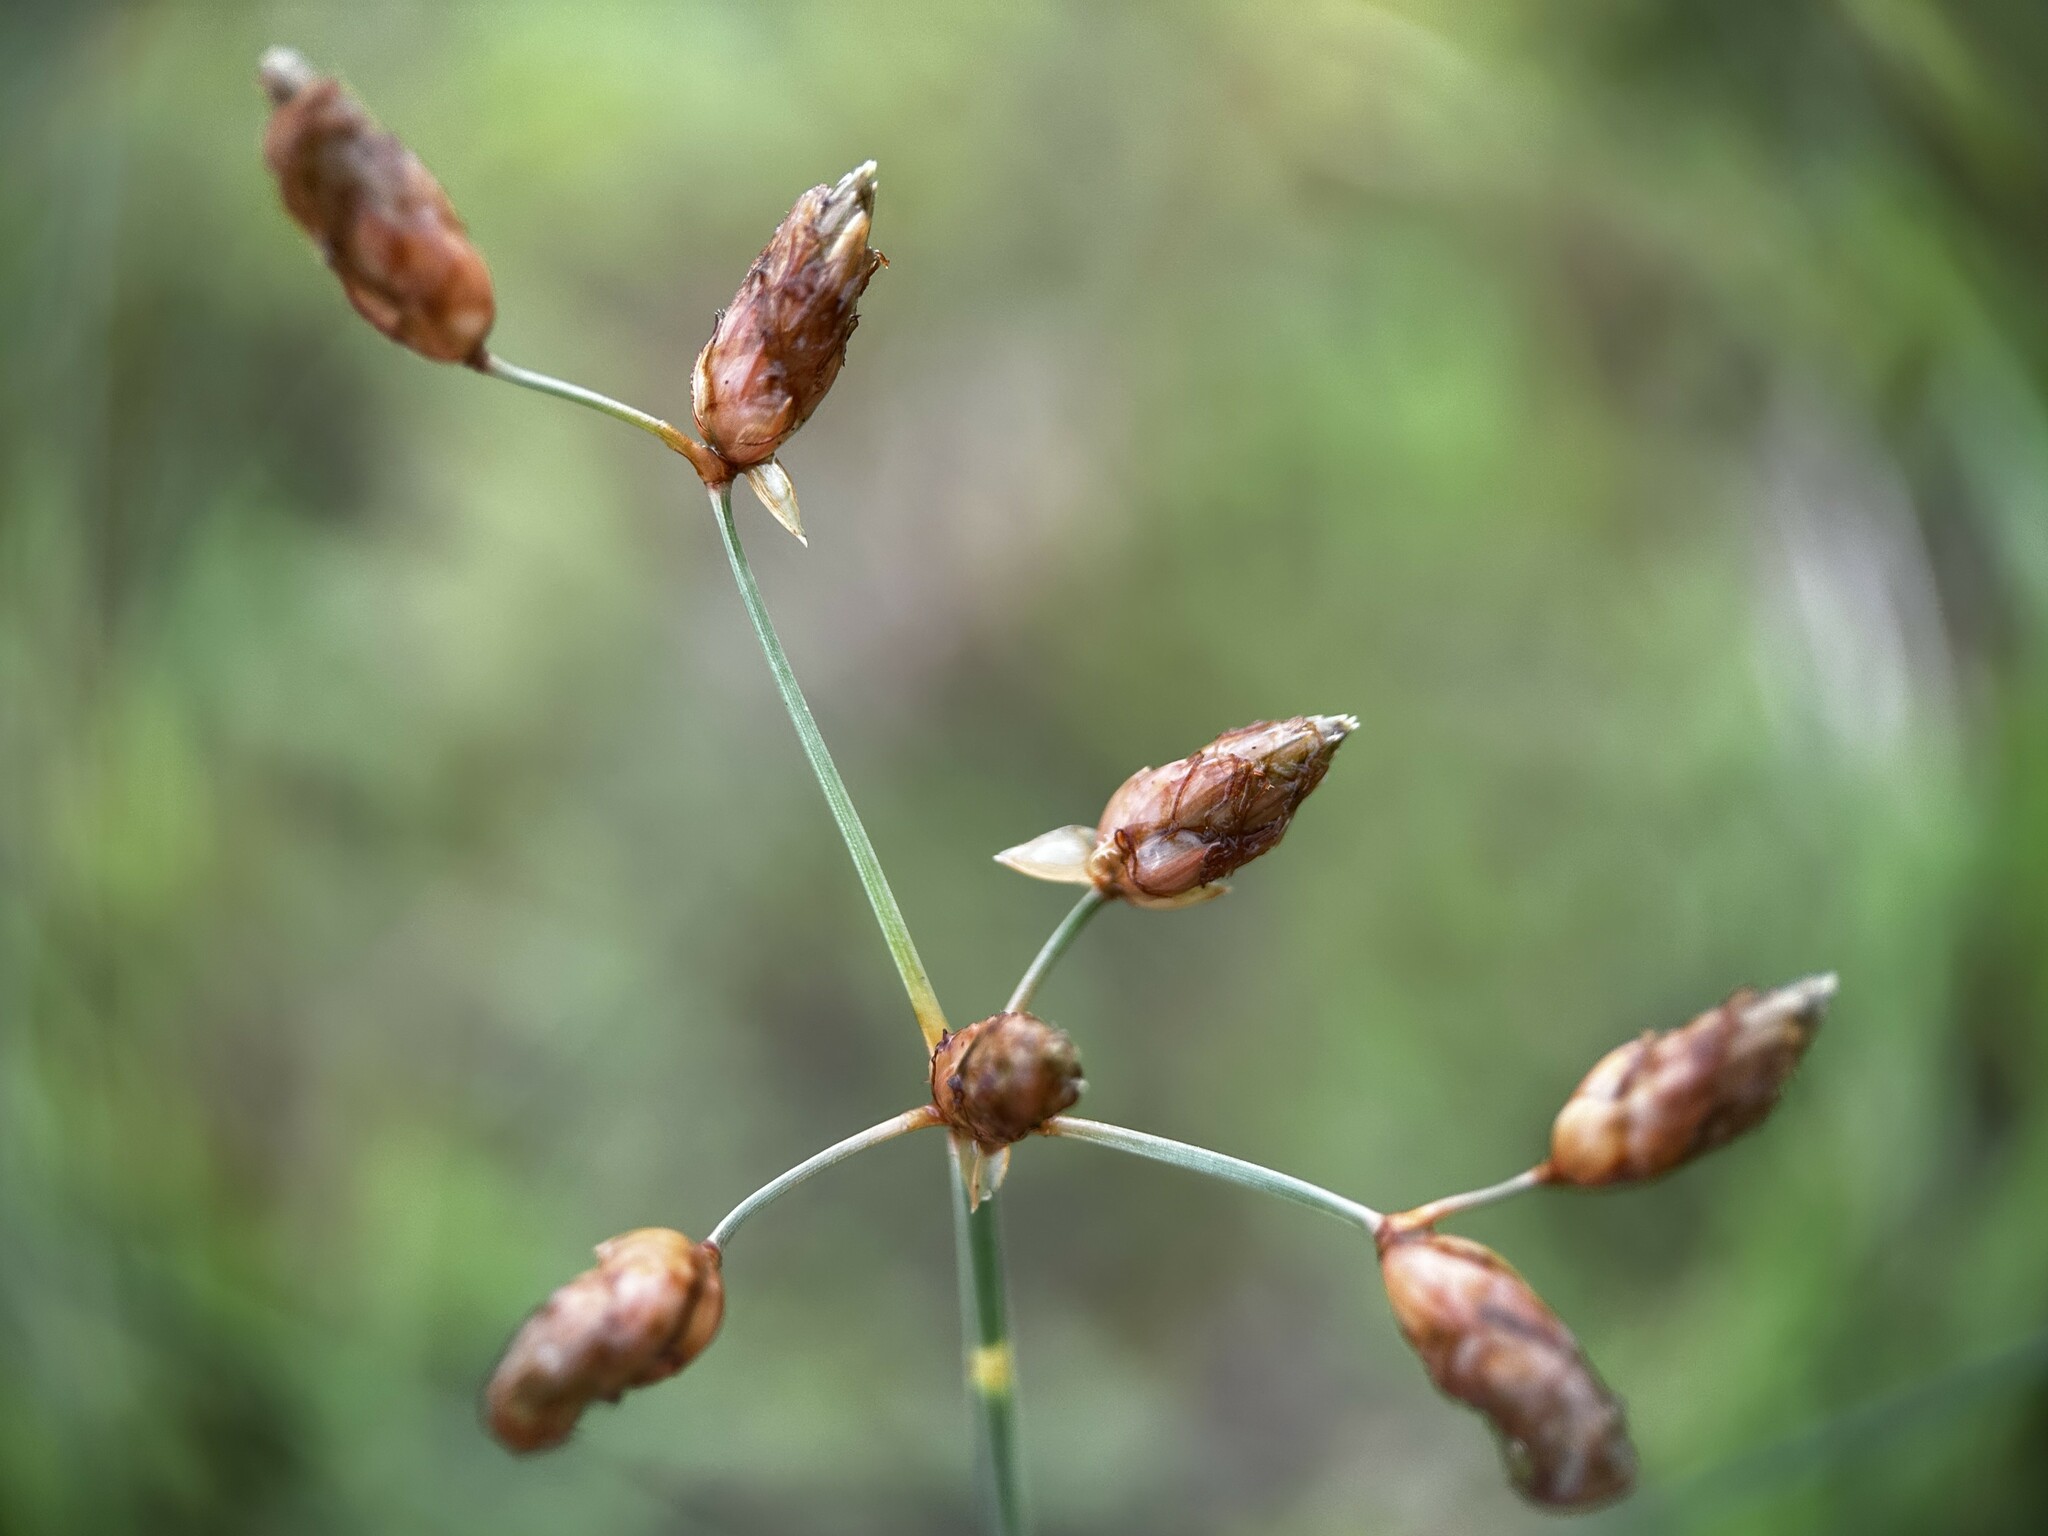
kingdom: Plantae
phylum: Tracheophyta
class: Liliopsida
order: Poales
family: Cyperaceae
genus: Fimbristylis
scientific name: Fimbristylis tristachya
